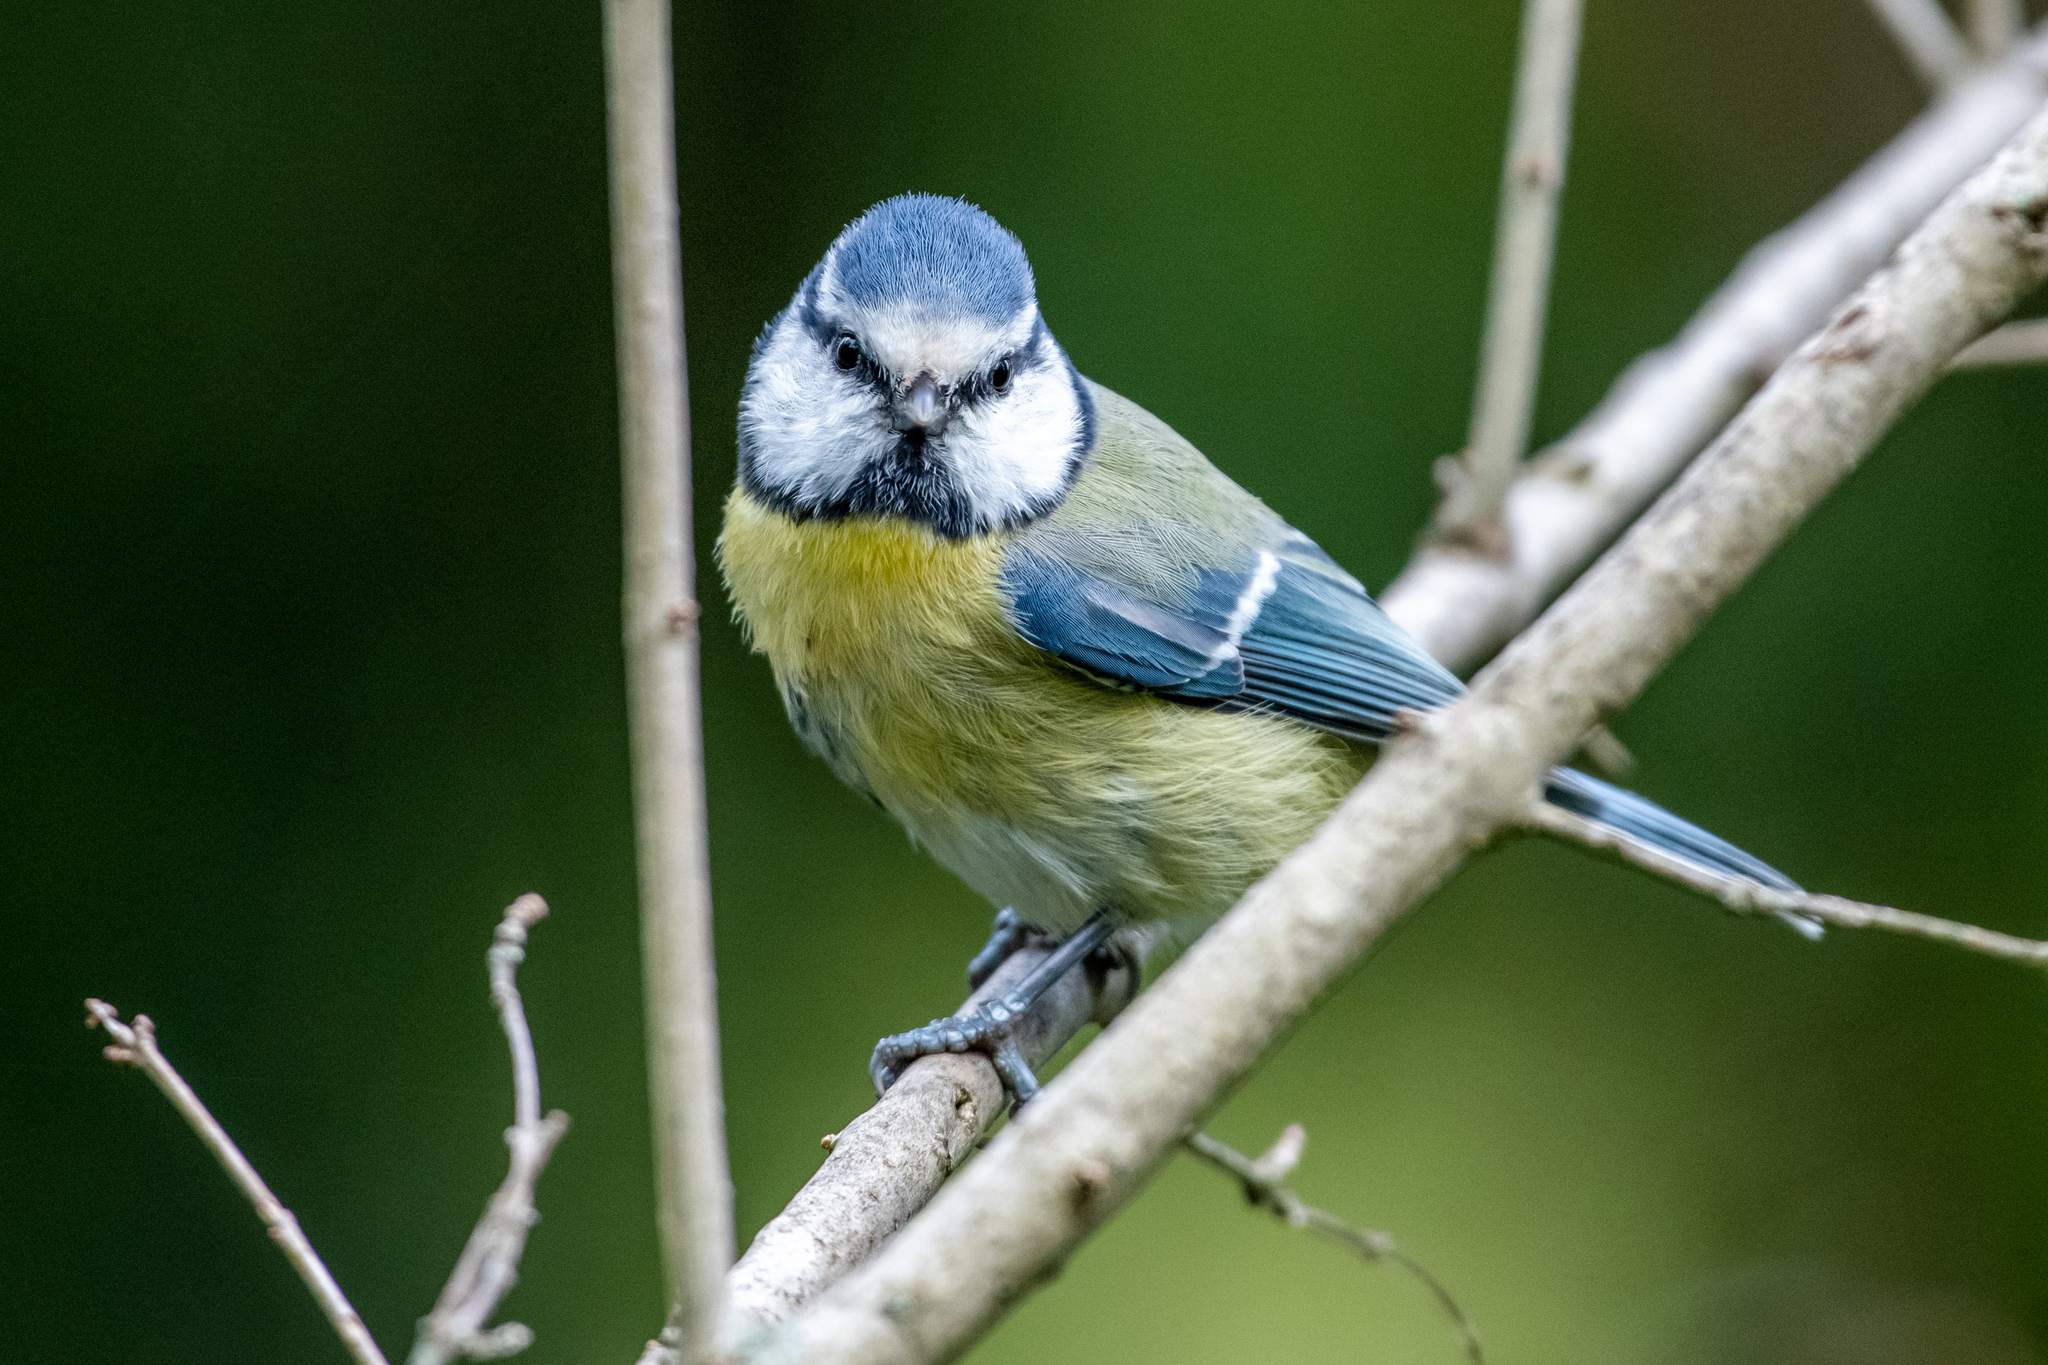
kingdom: Animalia
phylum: Chordata
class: Aves
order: Passeriformes
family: Paridae
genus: Cyanistes
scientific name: Cyanistes caeruleus
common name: Eurasian blue tit
